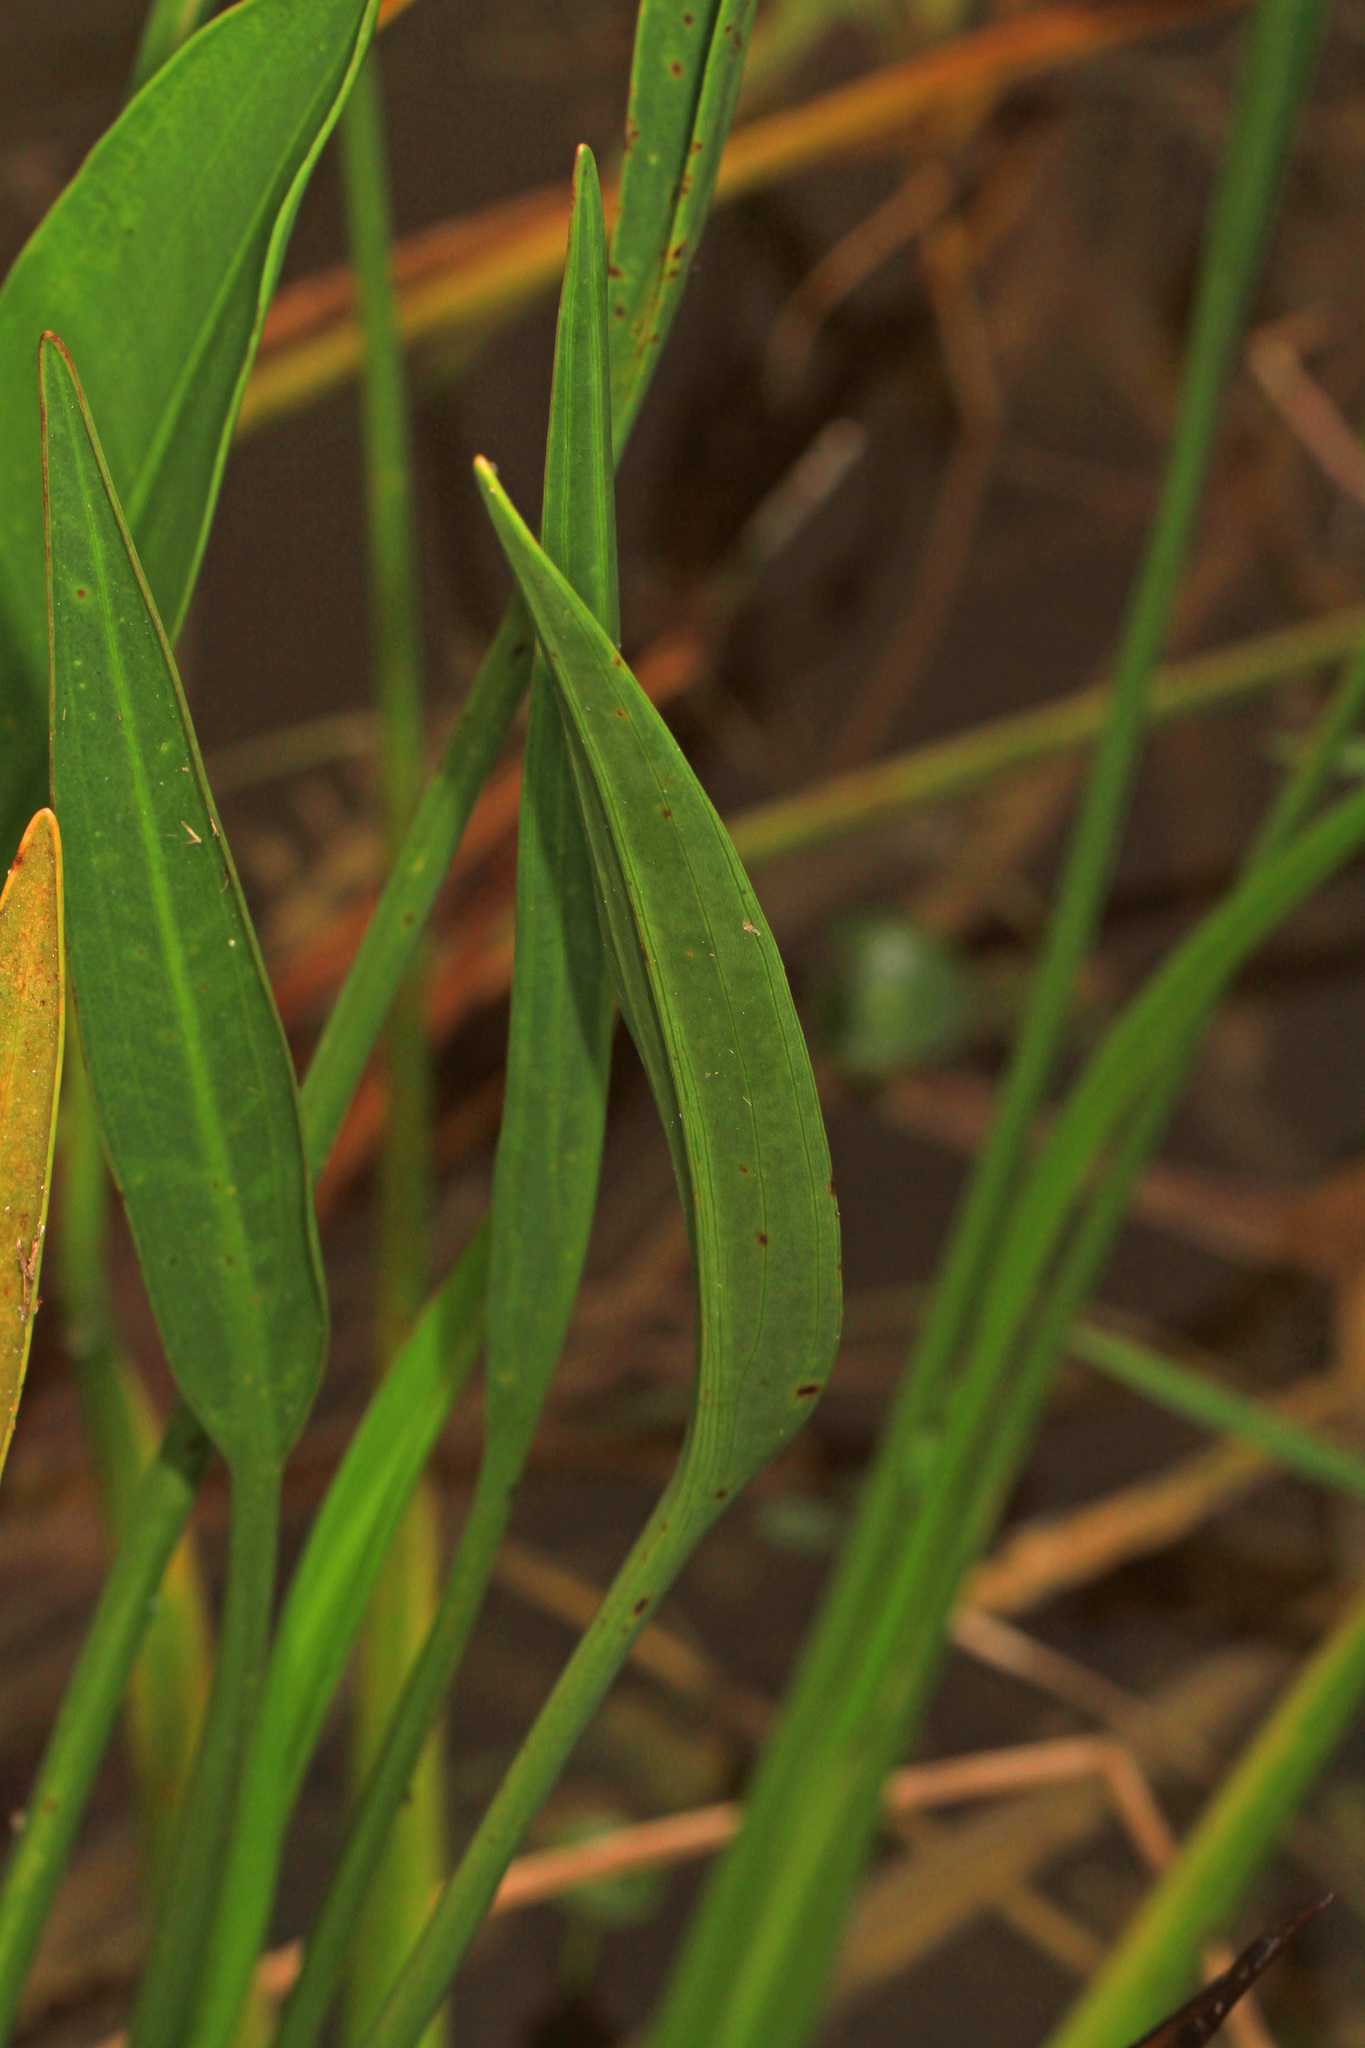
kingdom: Plantae
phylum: Tracheophyta
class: Liliopsida
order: Alismatales
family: Alismataceae
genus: Sagittaria
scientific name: Sagittaria lancifolia
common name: Lance-leaf arrowhead
